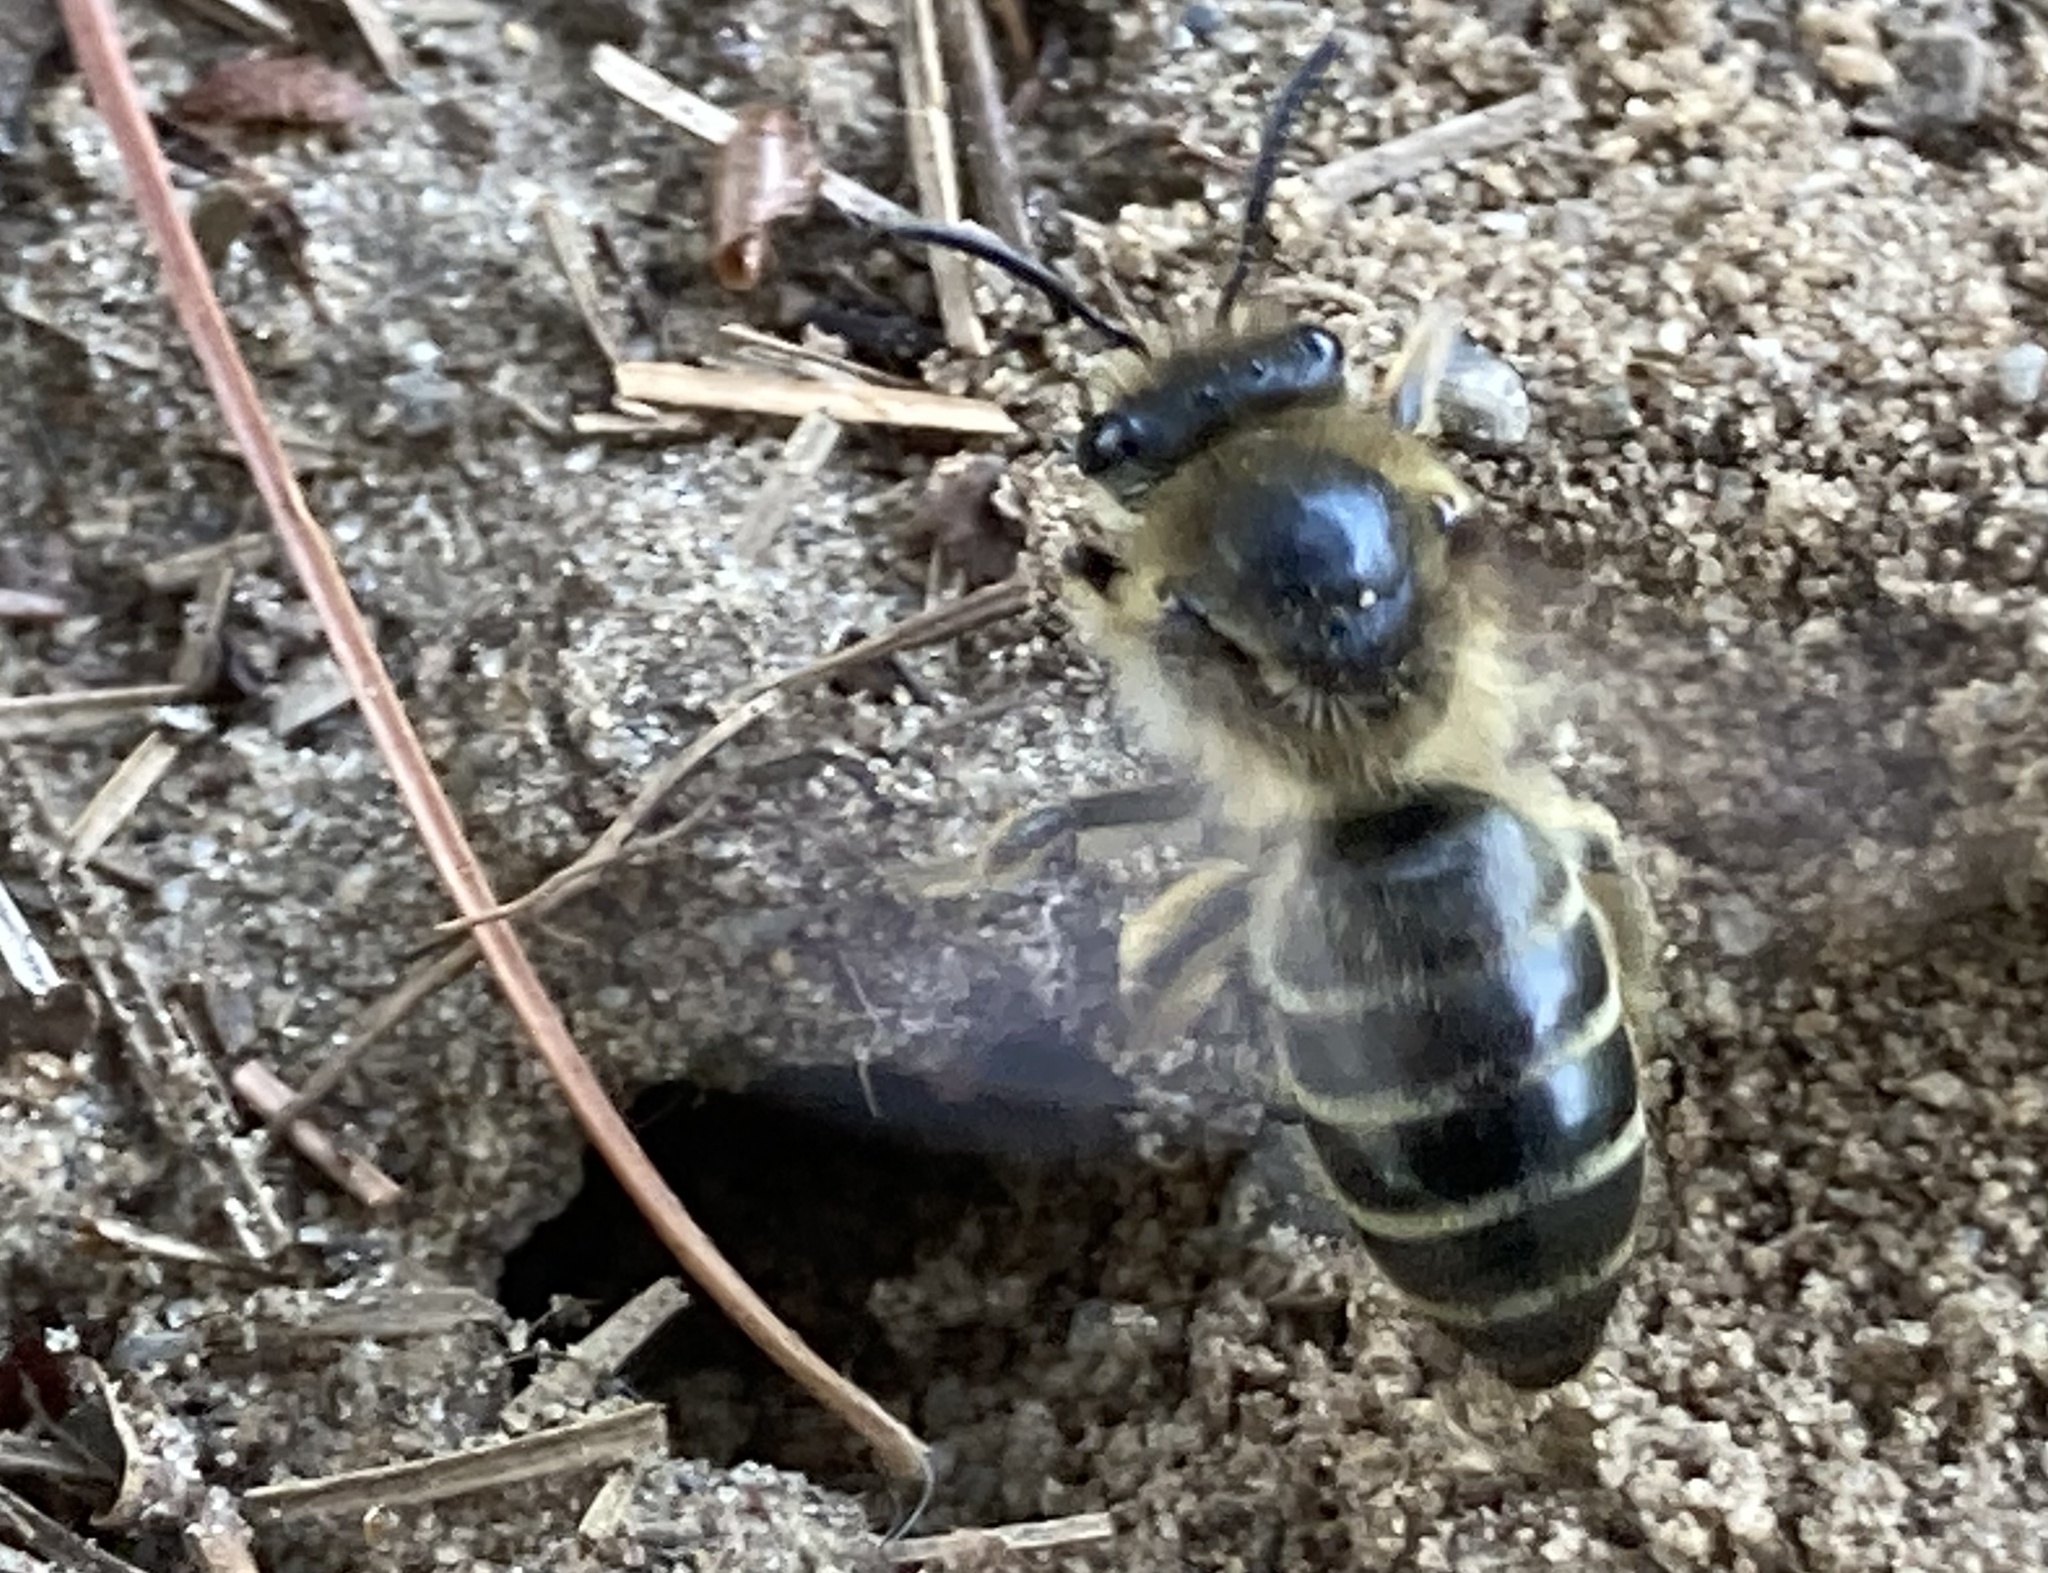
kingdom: Animalia
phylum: Arthropoda
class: Insecta
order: Hymenoptera
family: Colletidae
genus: Colletes
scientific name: Colletes inaequalis
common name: Unequal cellophane bee
